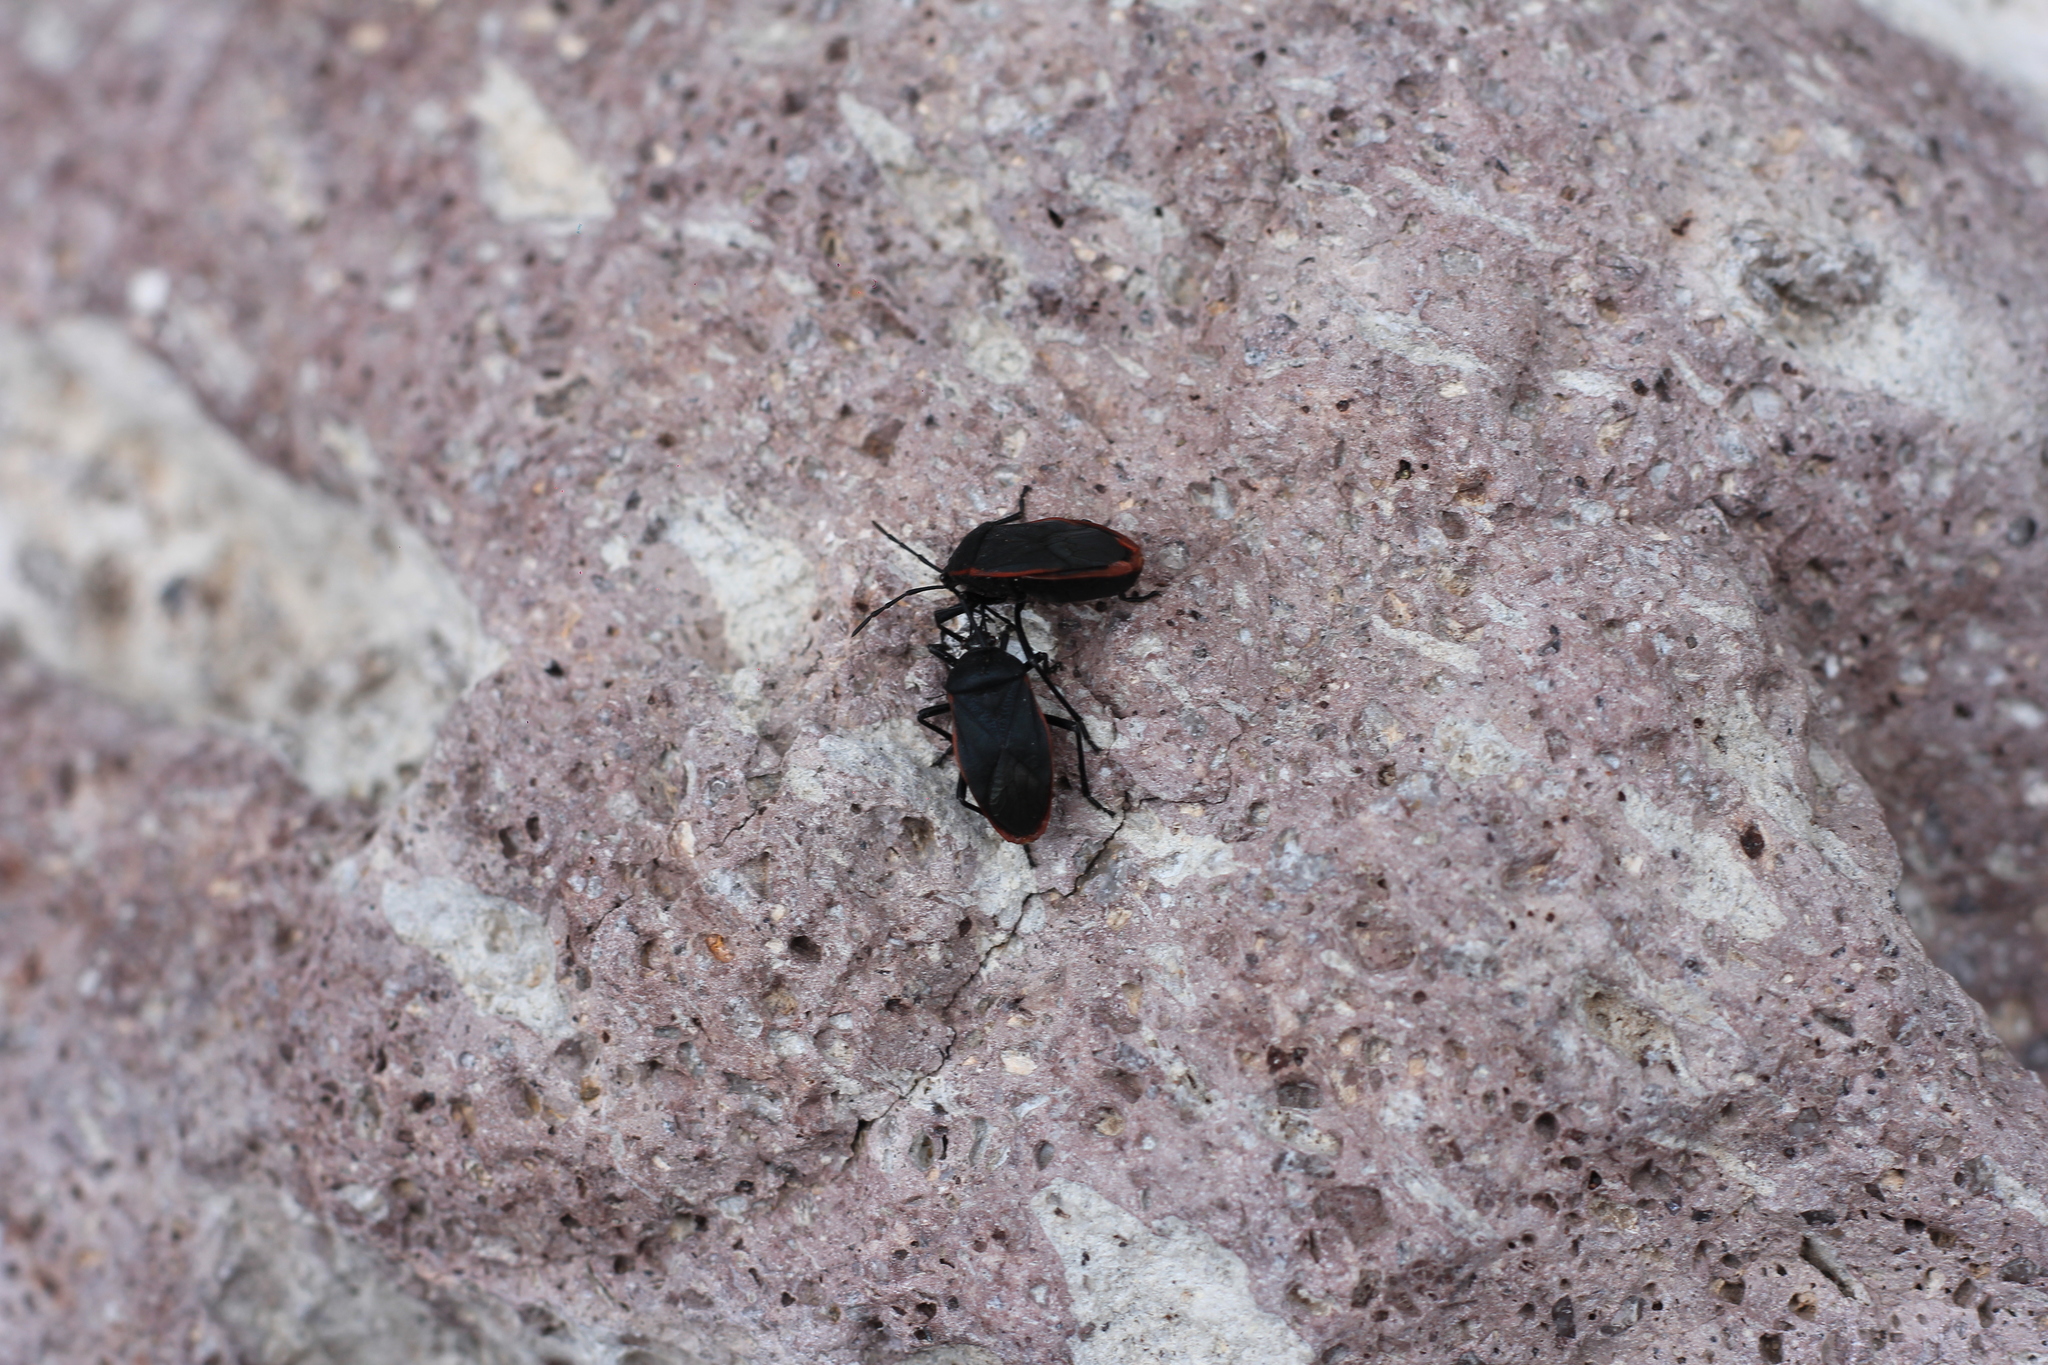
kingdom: Animalia
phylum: Arthropoda
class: Insecta
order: Hemiptera
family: Largidae
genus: Largus
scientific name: Largus rufipennis
